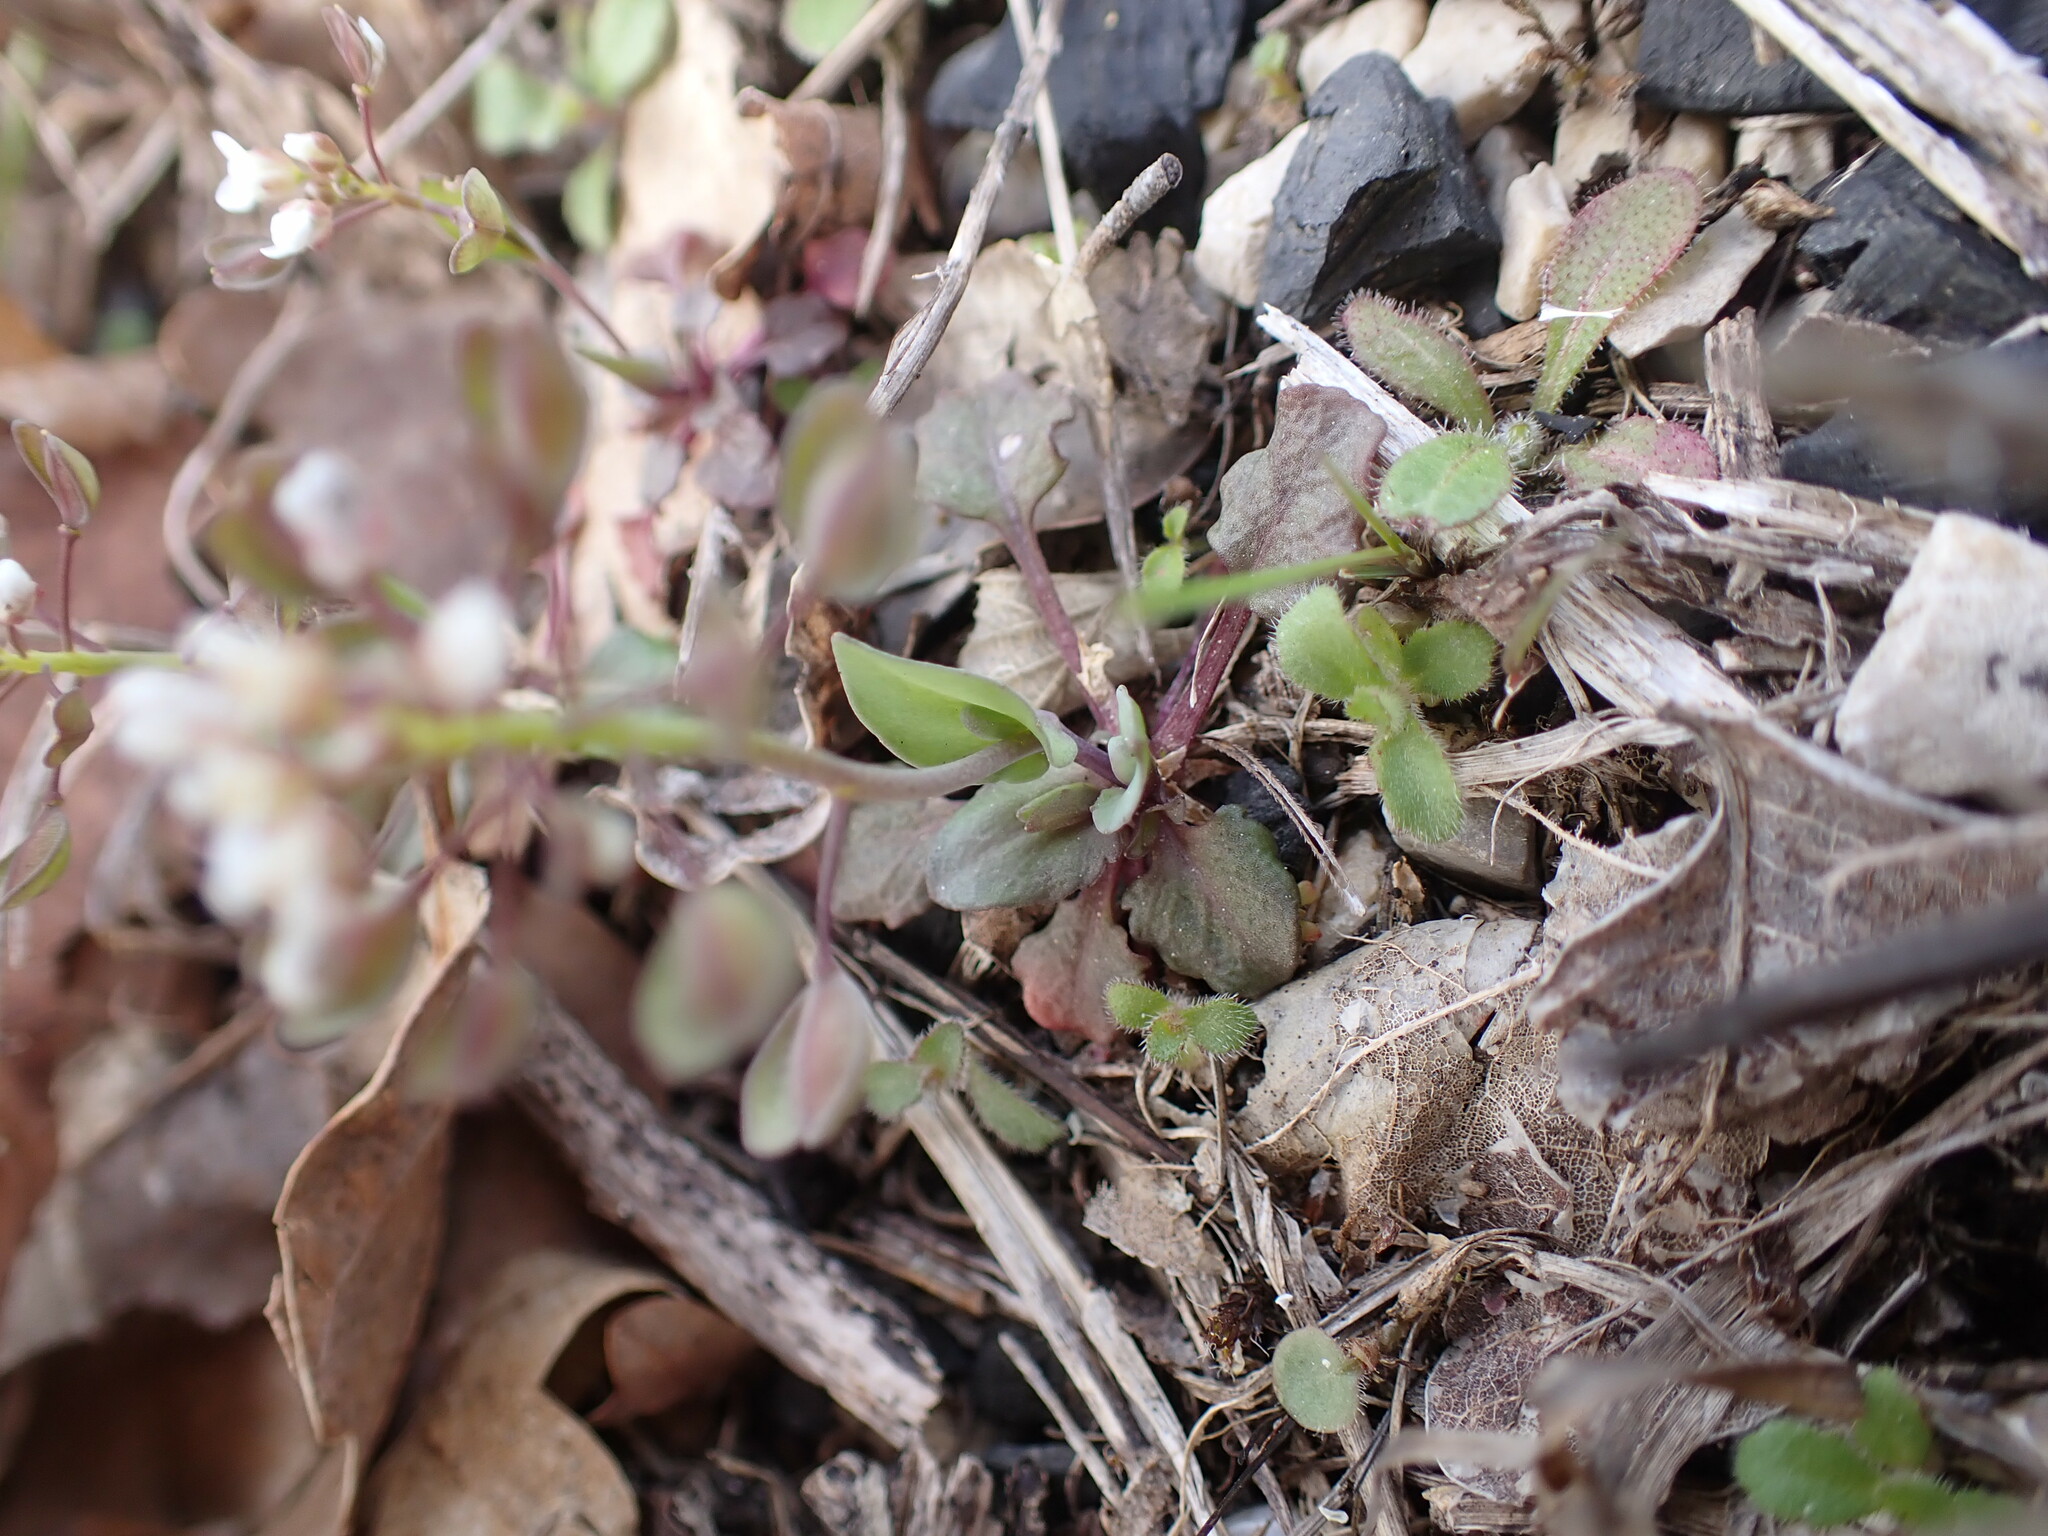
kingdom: Plantae
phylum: Tracheophyta
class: Magnoliopsida
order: Brassicales
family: Brassicaceae
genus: Noccaea
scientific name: Noccaea perfoliata
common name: Perfoliate pennycress
